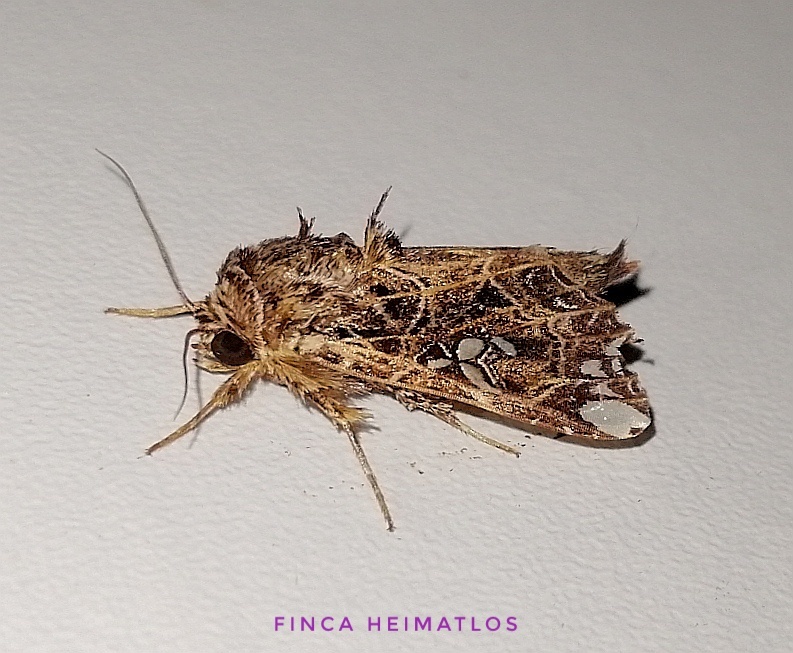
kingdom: Animalia
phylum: Arthropoda
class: Insecta
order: Lepidoptera
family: Noctuidae
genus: Argyrosticta
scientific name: Argyrosticta meres
